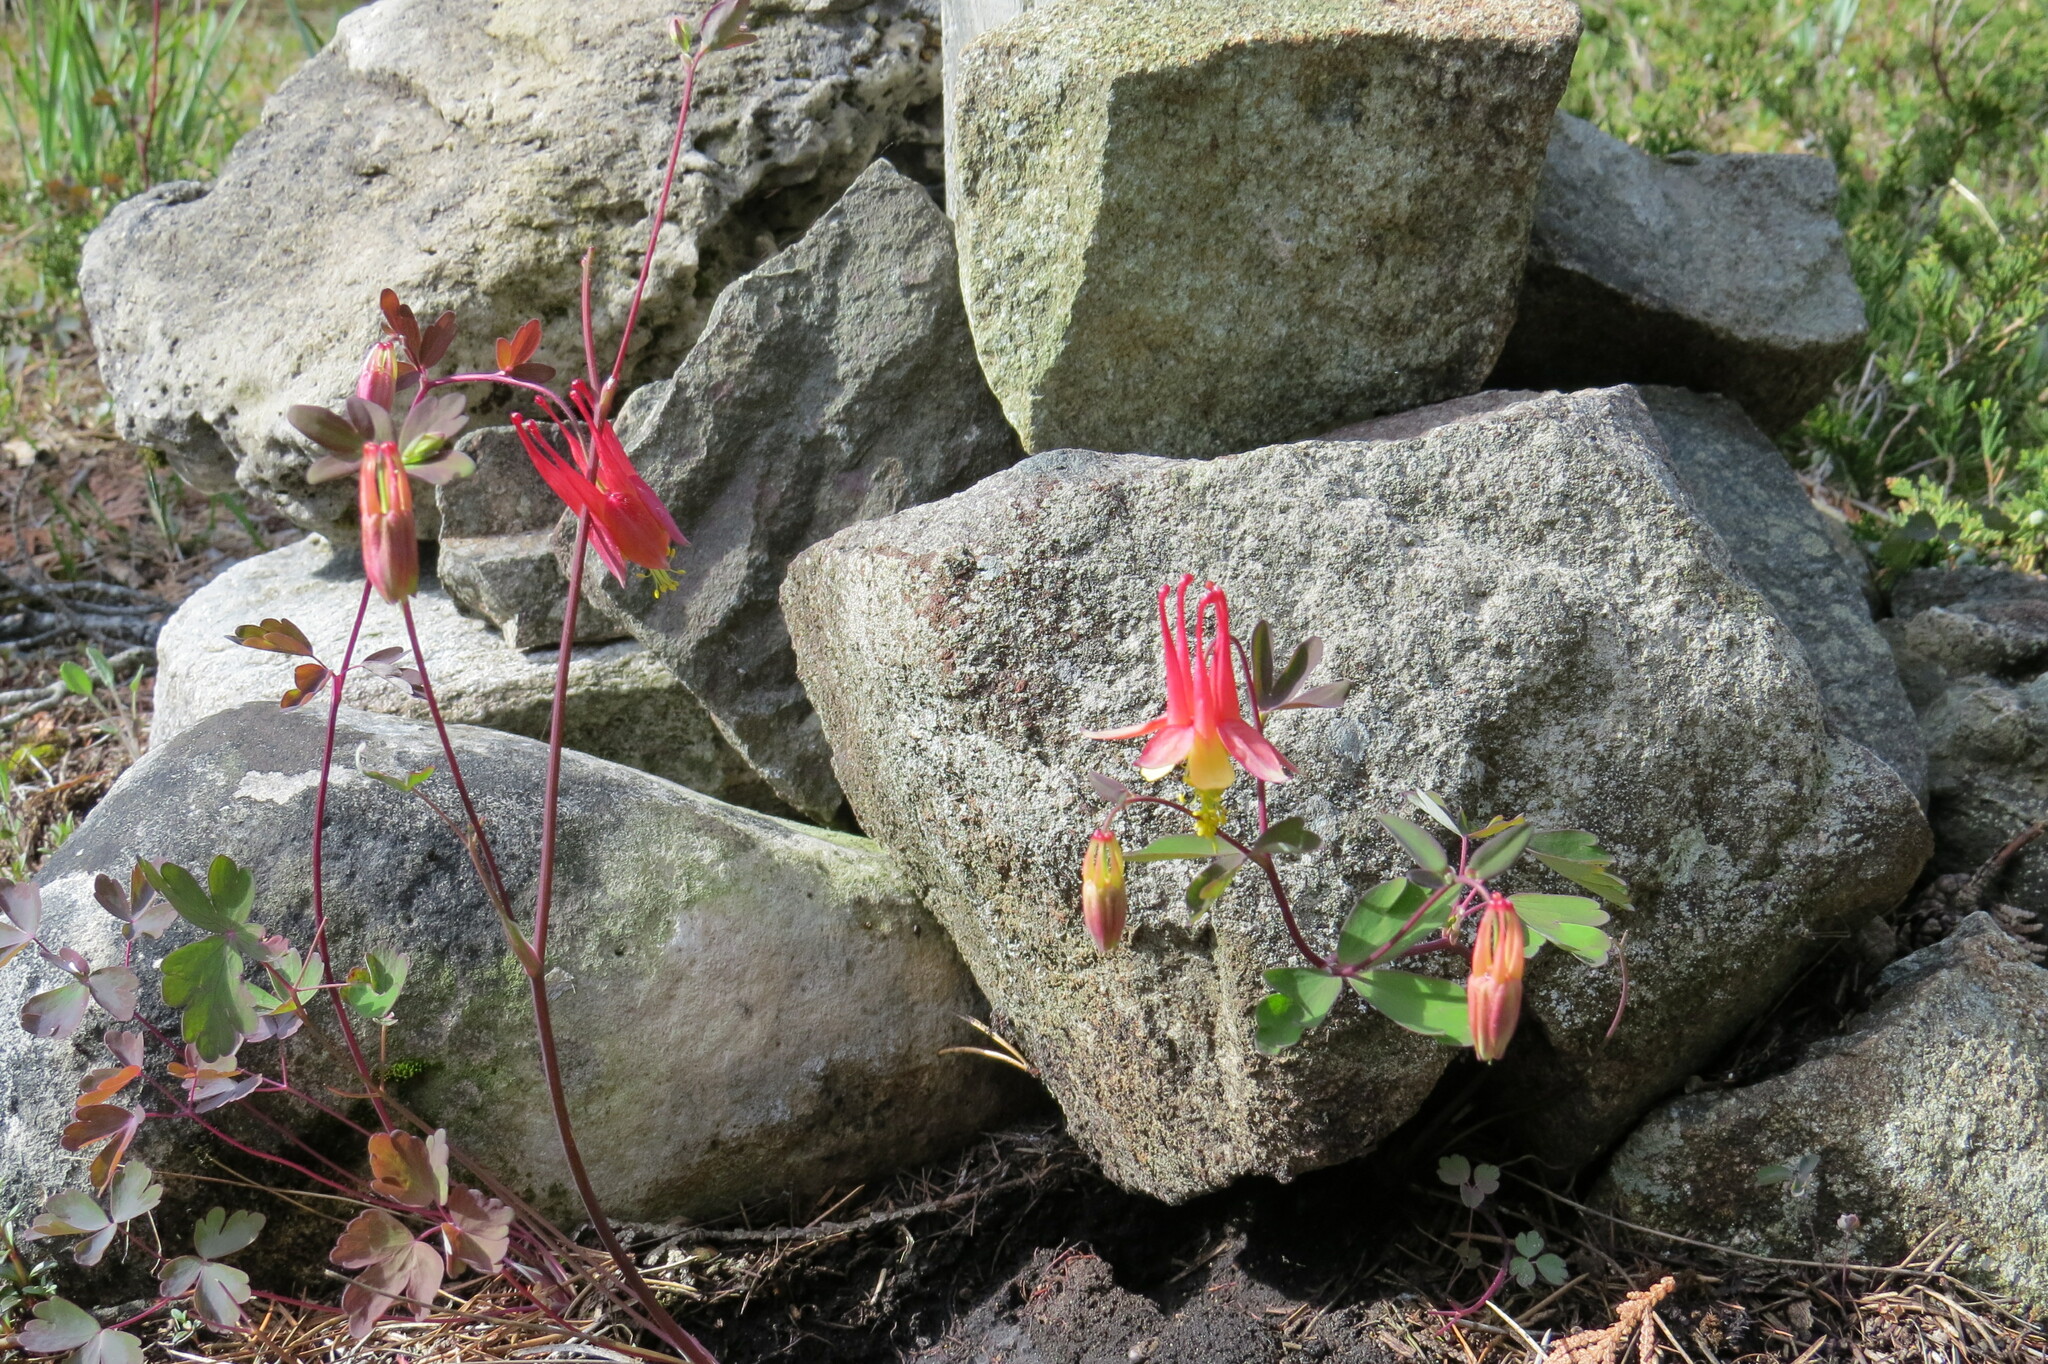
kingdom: Plantae
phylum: Tracheophyta
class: Magnoliopsida
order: Ranunculales
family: Ranunculaceae
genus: Aquilegia
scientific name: Aquilegia canadensis
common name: American columbine
